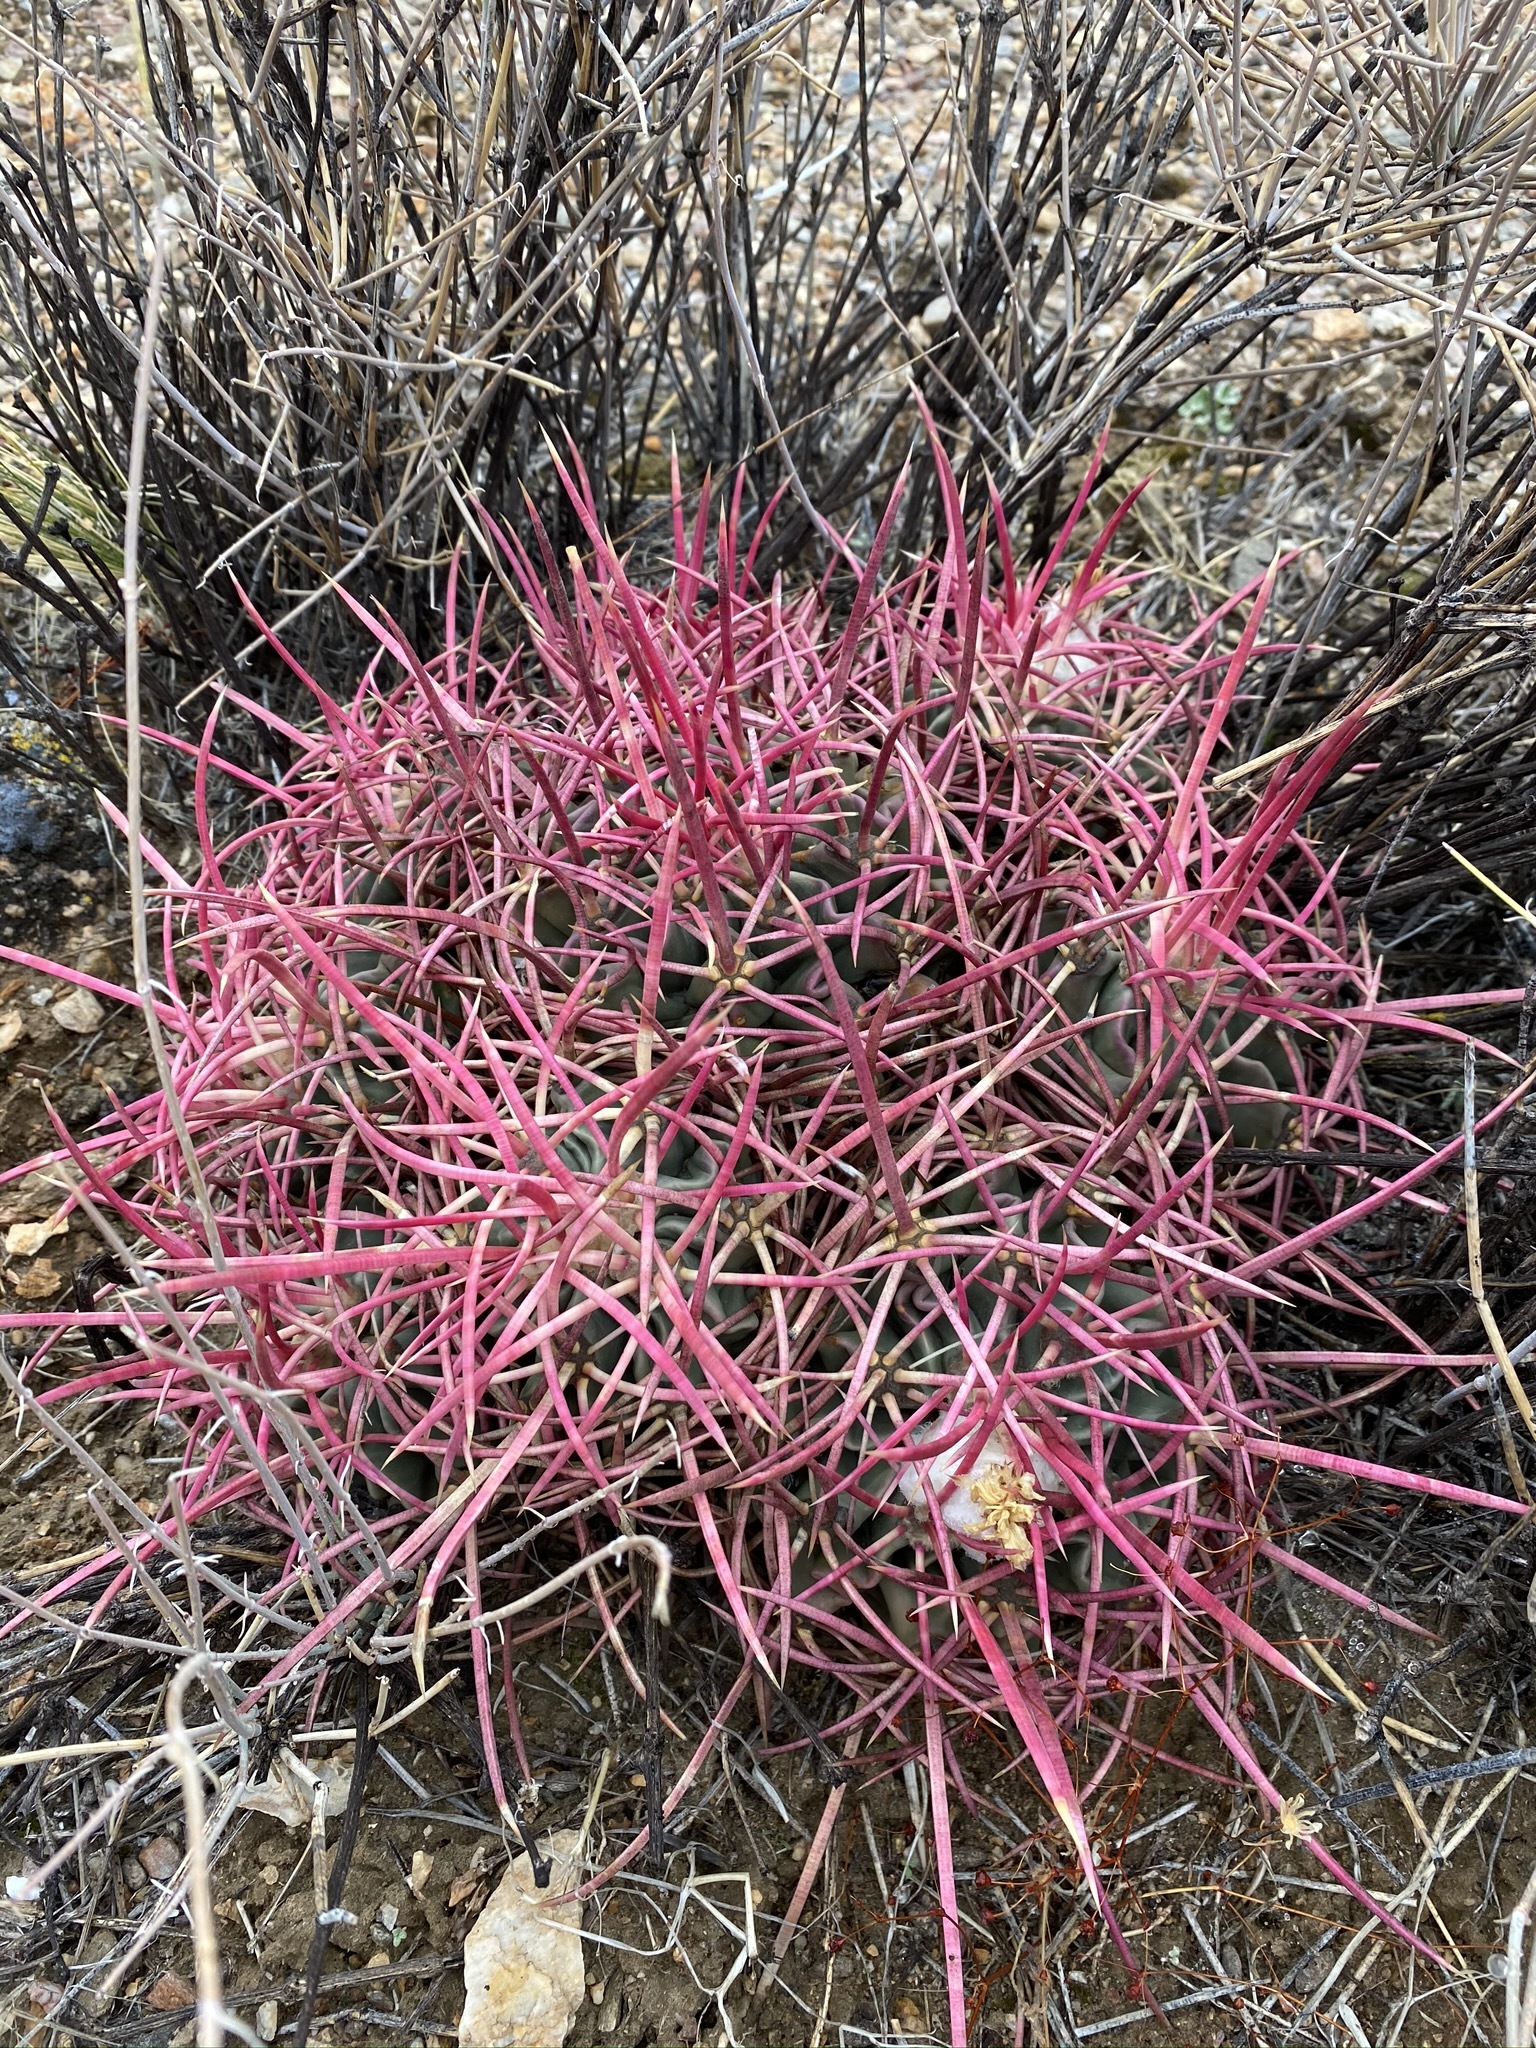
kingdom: Plantae
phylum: Tracheophyta
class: Magnoliopsida
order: Caryophyllales
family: Cactaceae
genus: Echinocactus
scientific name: Echinocactus polycephalus
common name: Cottontop cactus
